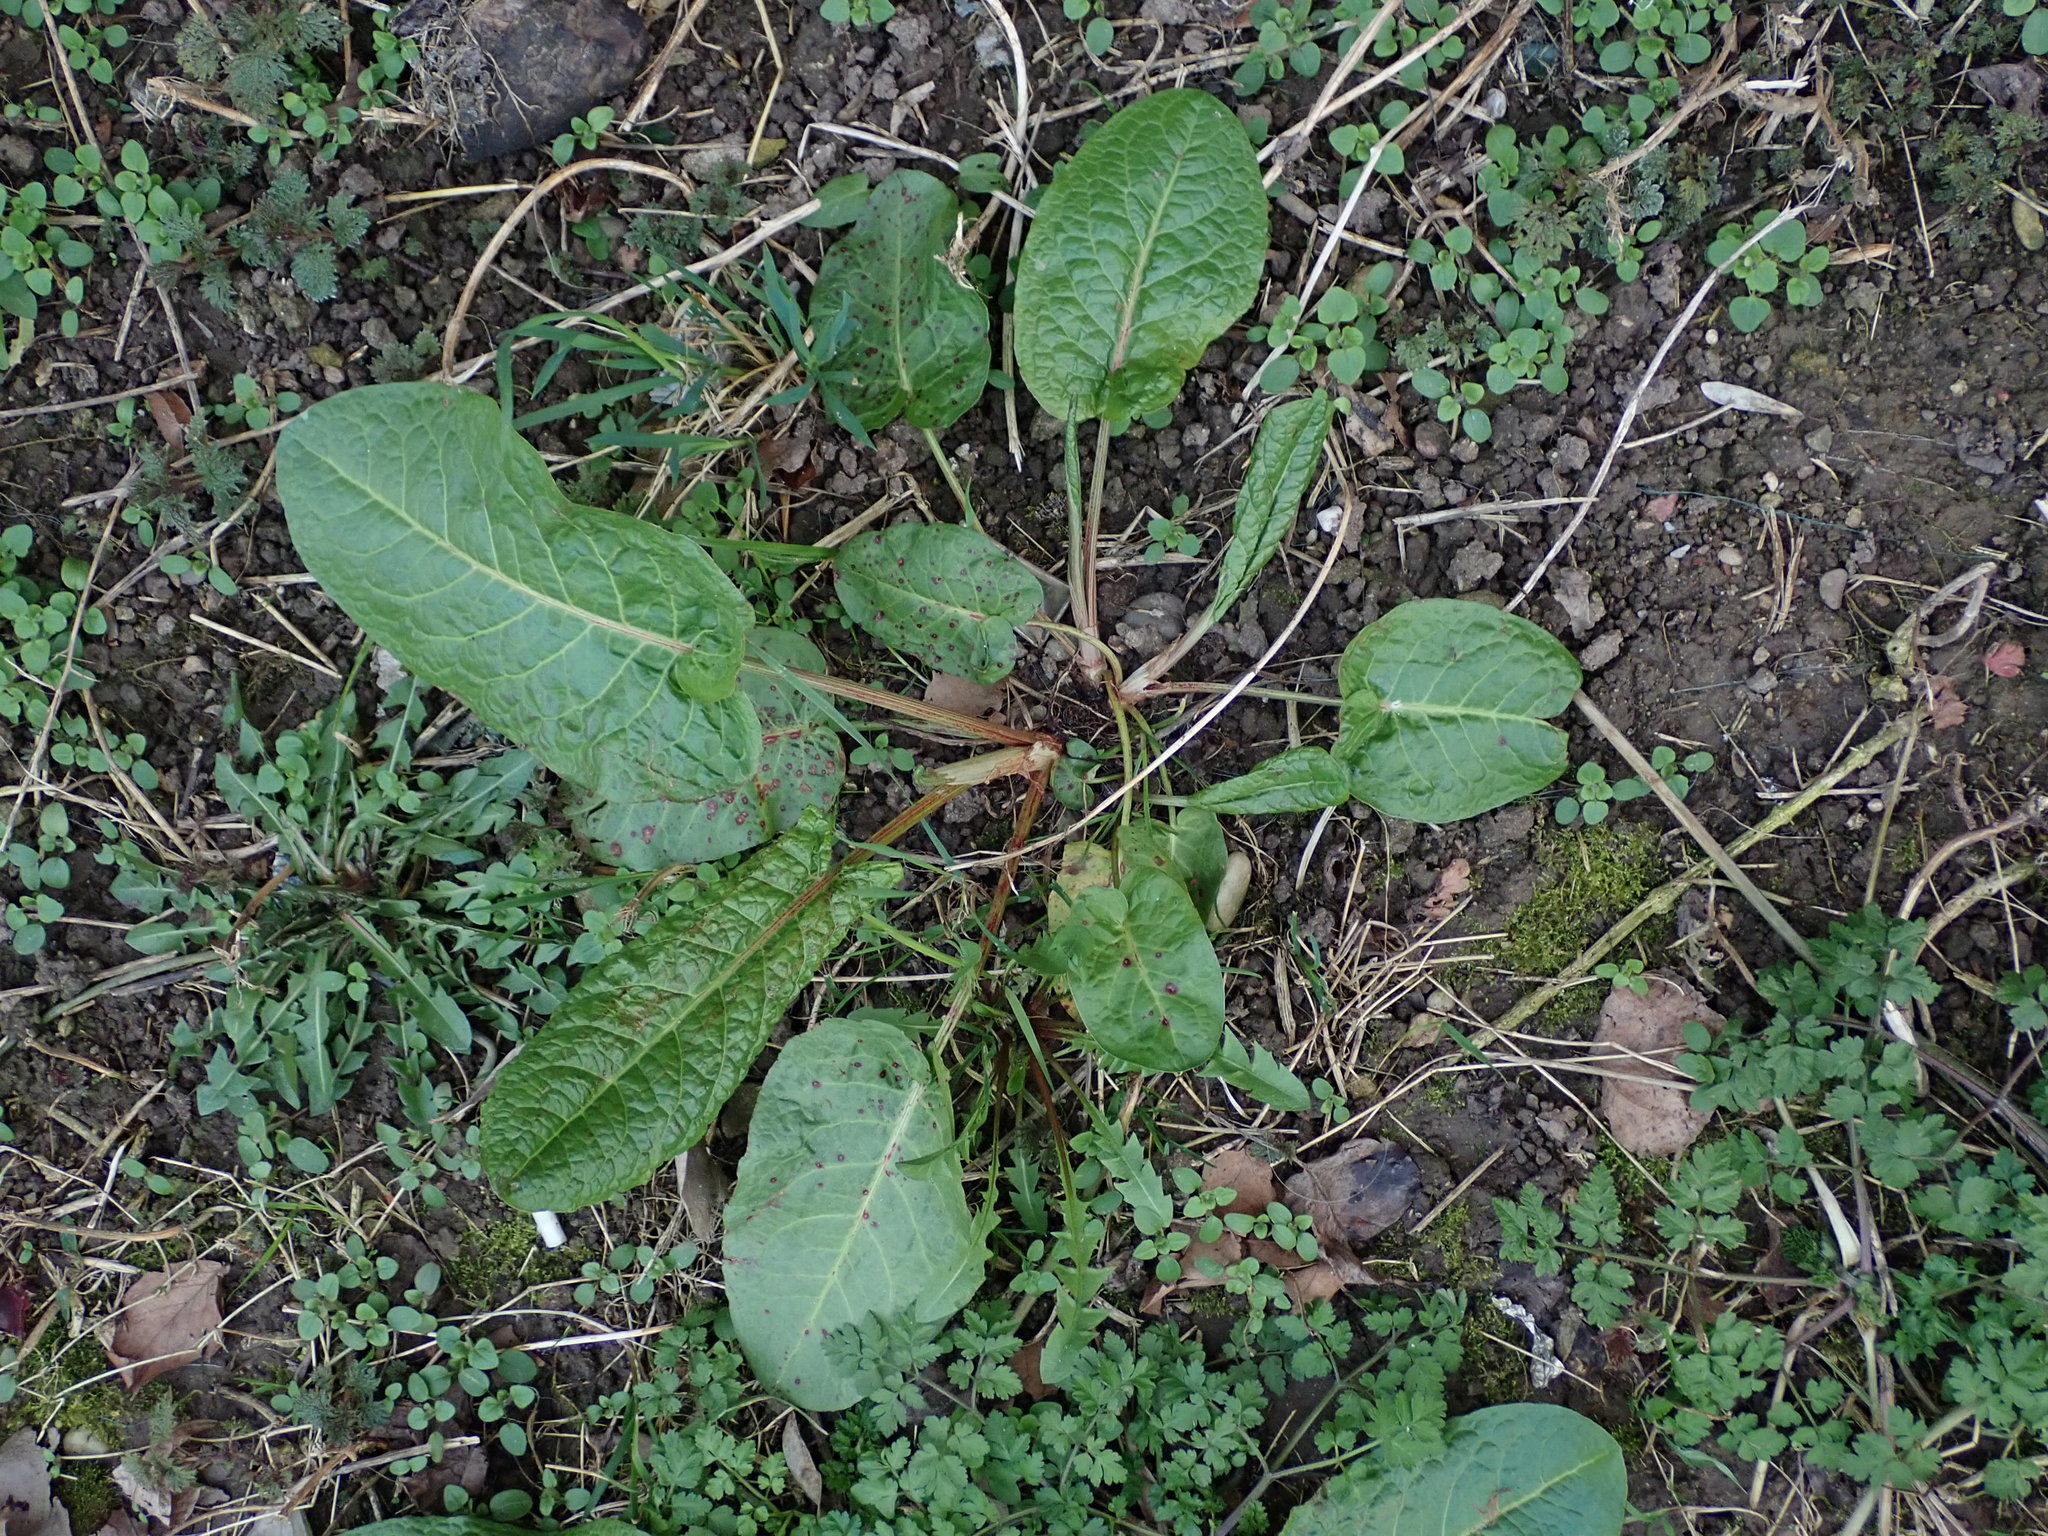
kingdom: Plantae
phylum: Tracheophyta
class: Magnoliopsida
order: Caryophyllales
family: Polygonaceae
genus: Rumex
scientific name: Rumex obtusifolius
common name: Bitter dock
